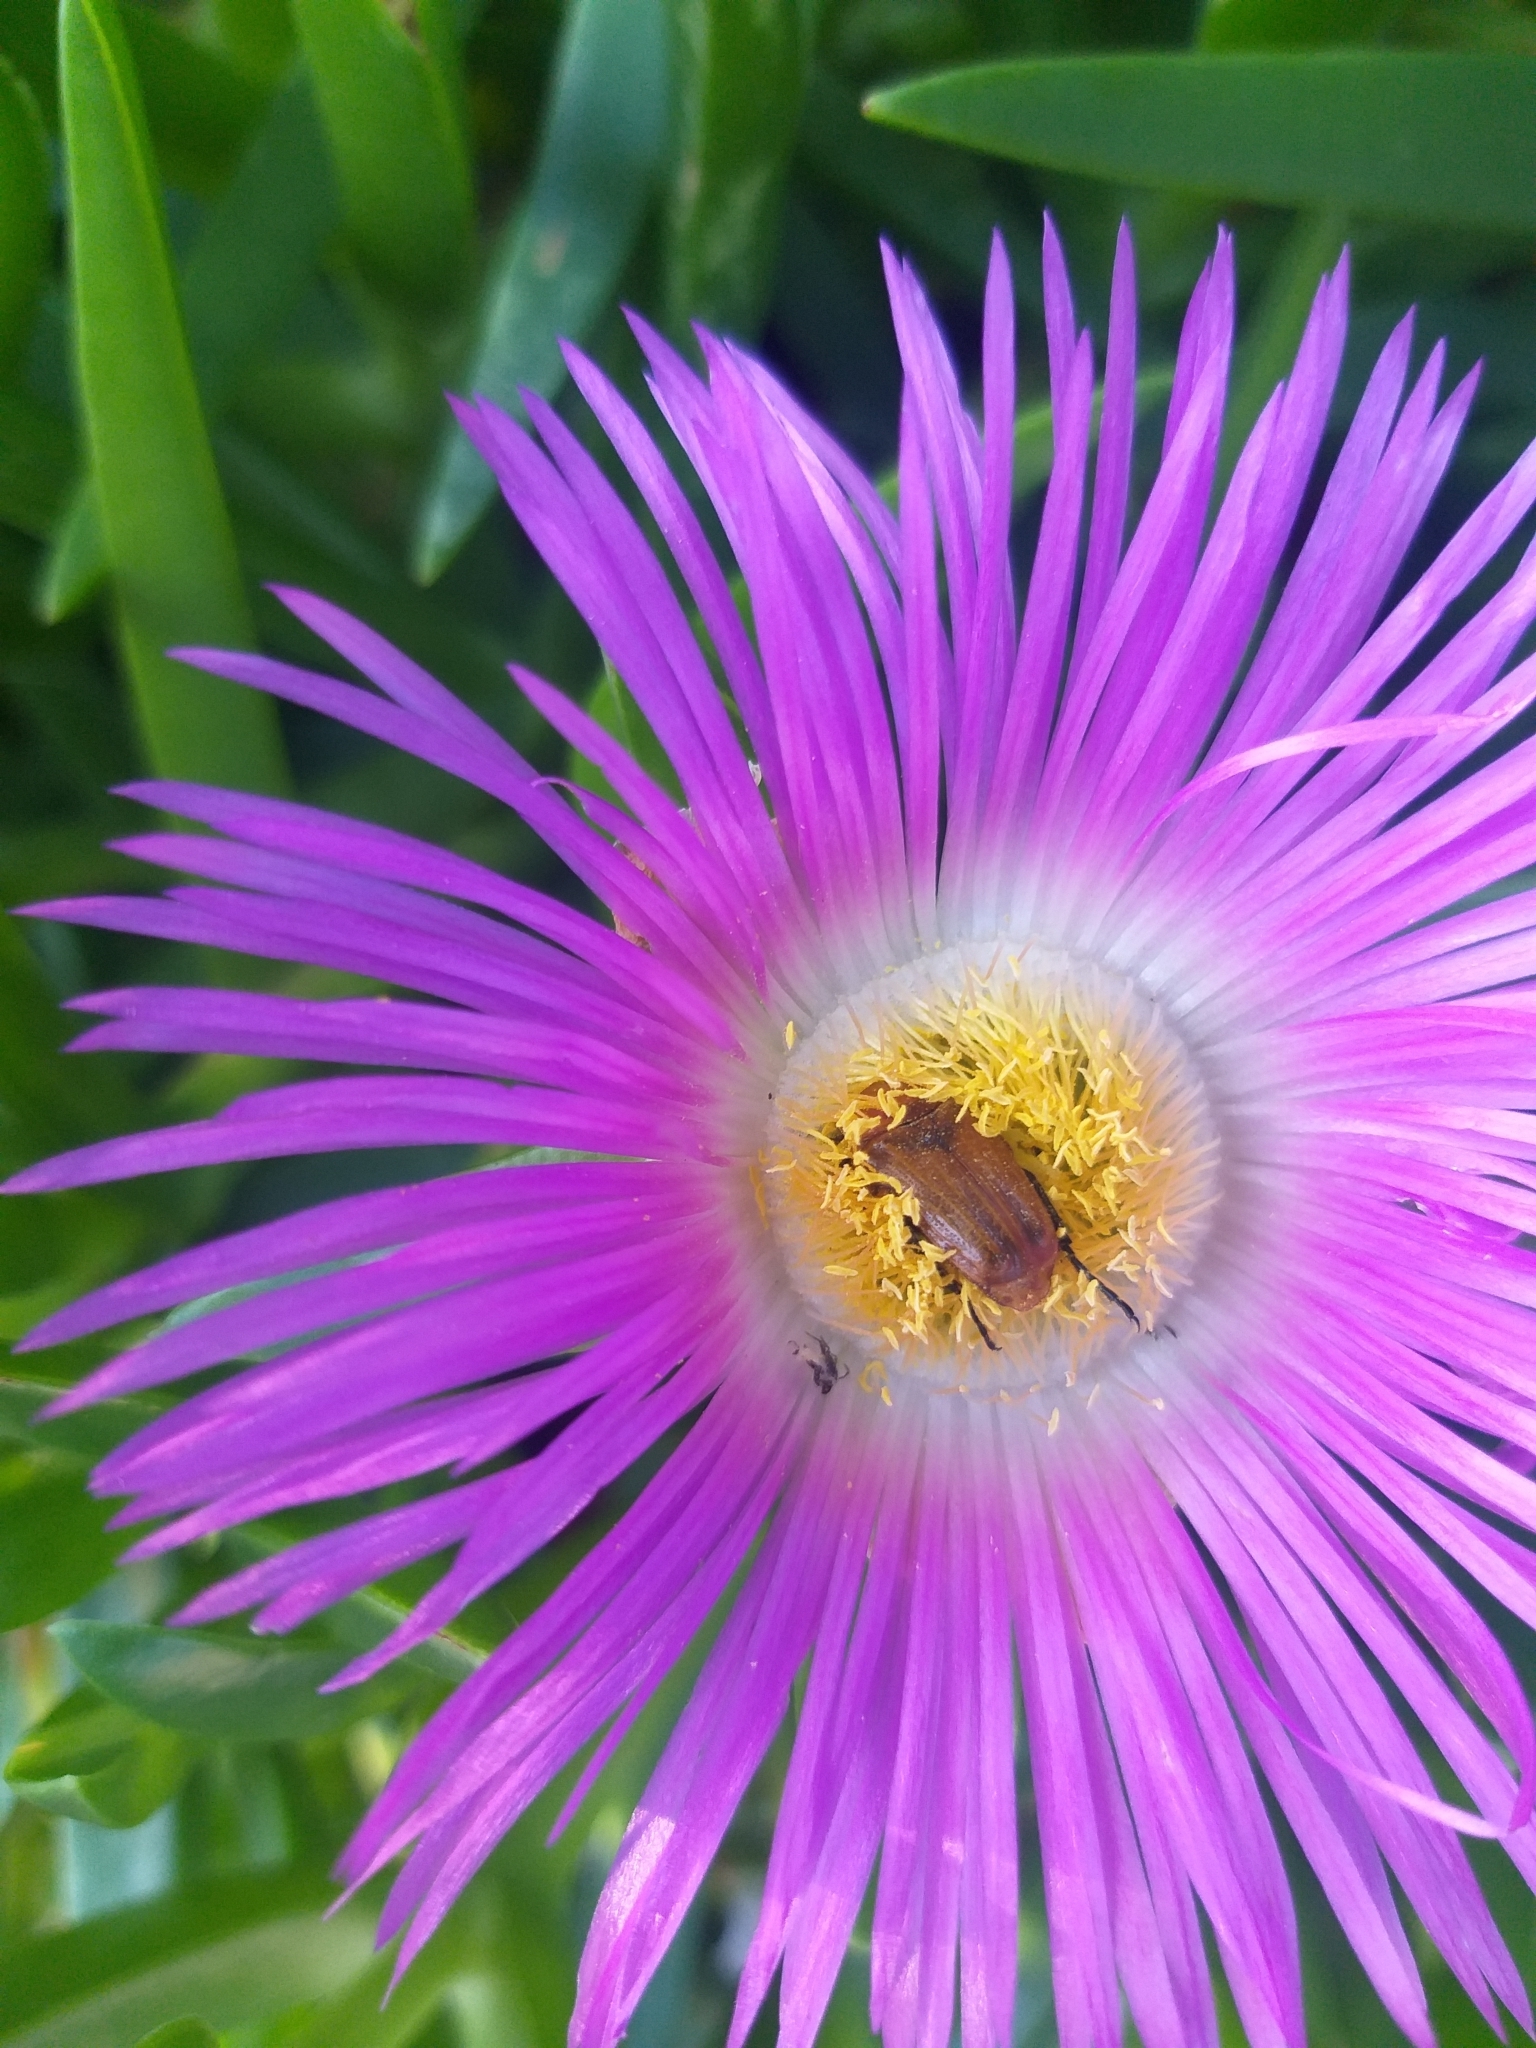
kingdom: Animalia
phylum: Arthropoda
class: Insecta
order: Coleoptera
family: Scarabaeidae
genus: Leucocelis
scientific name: Leucocelis rubra
